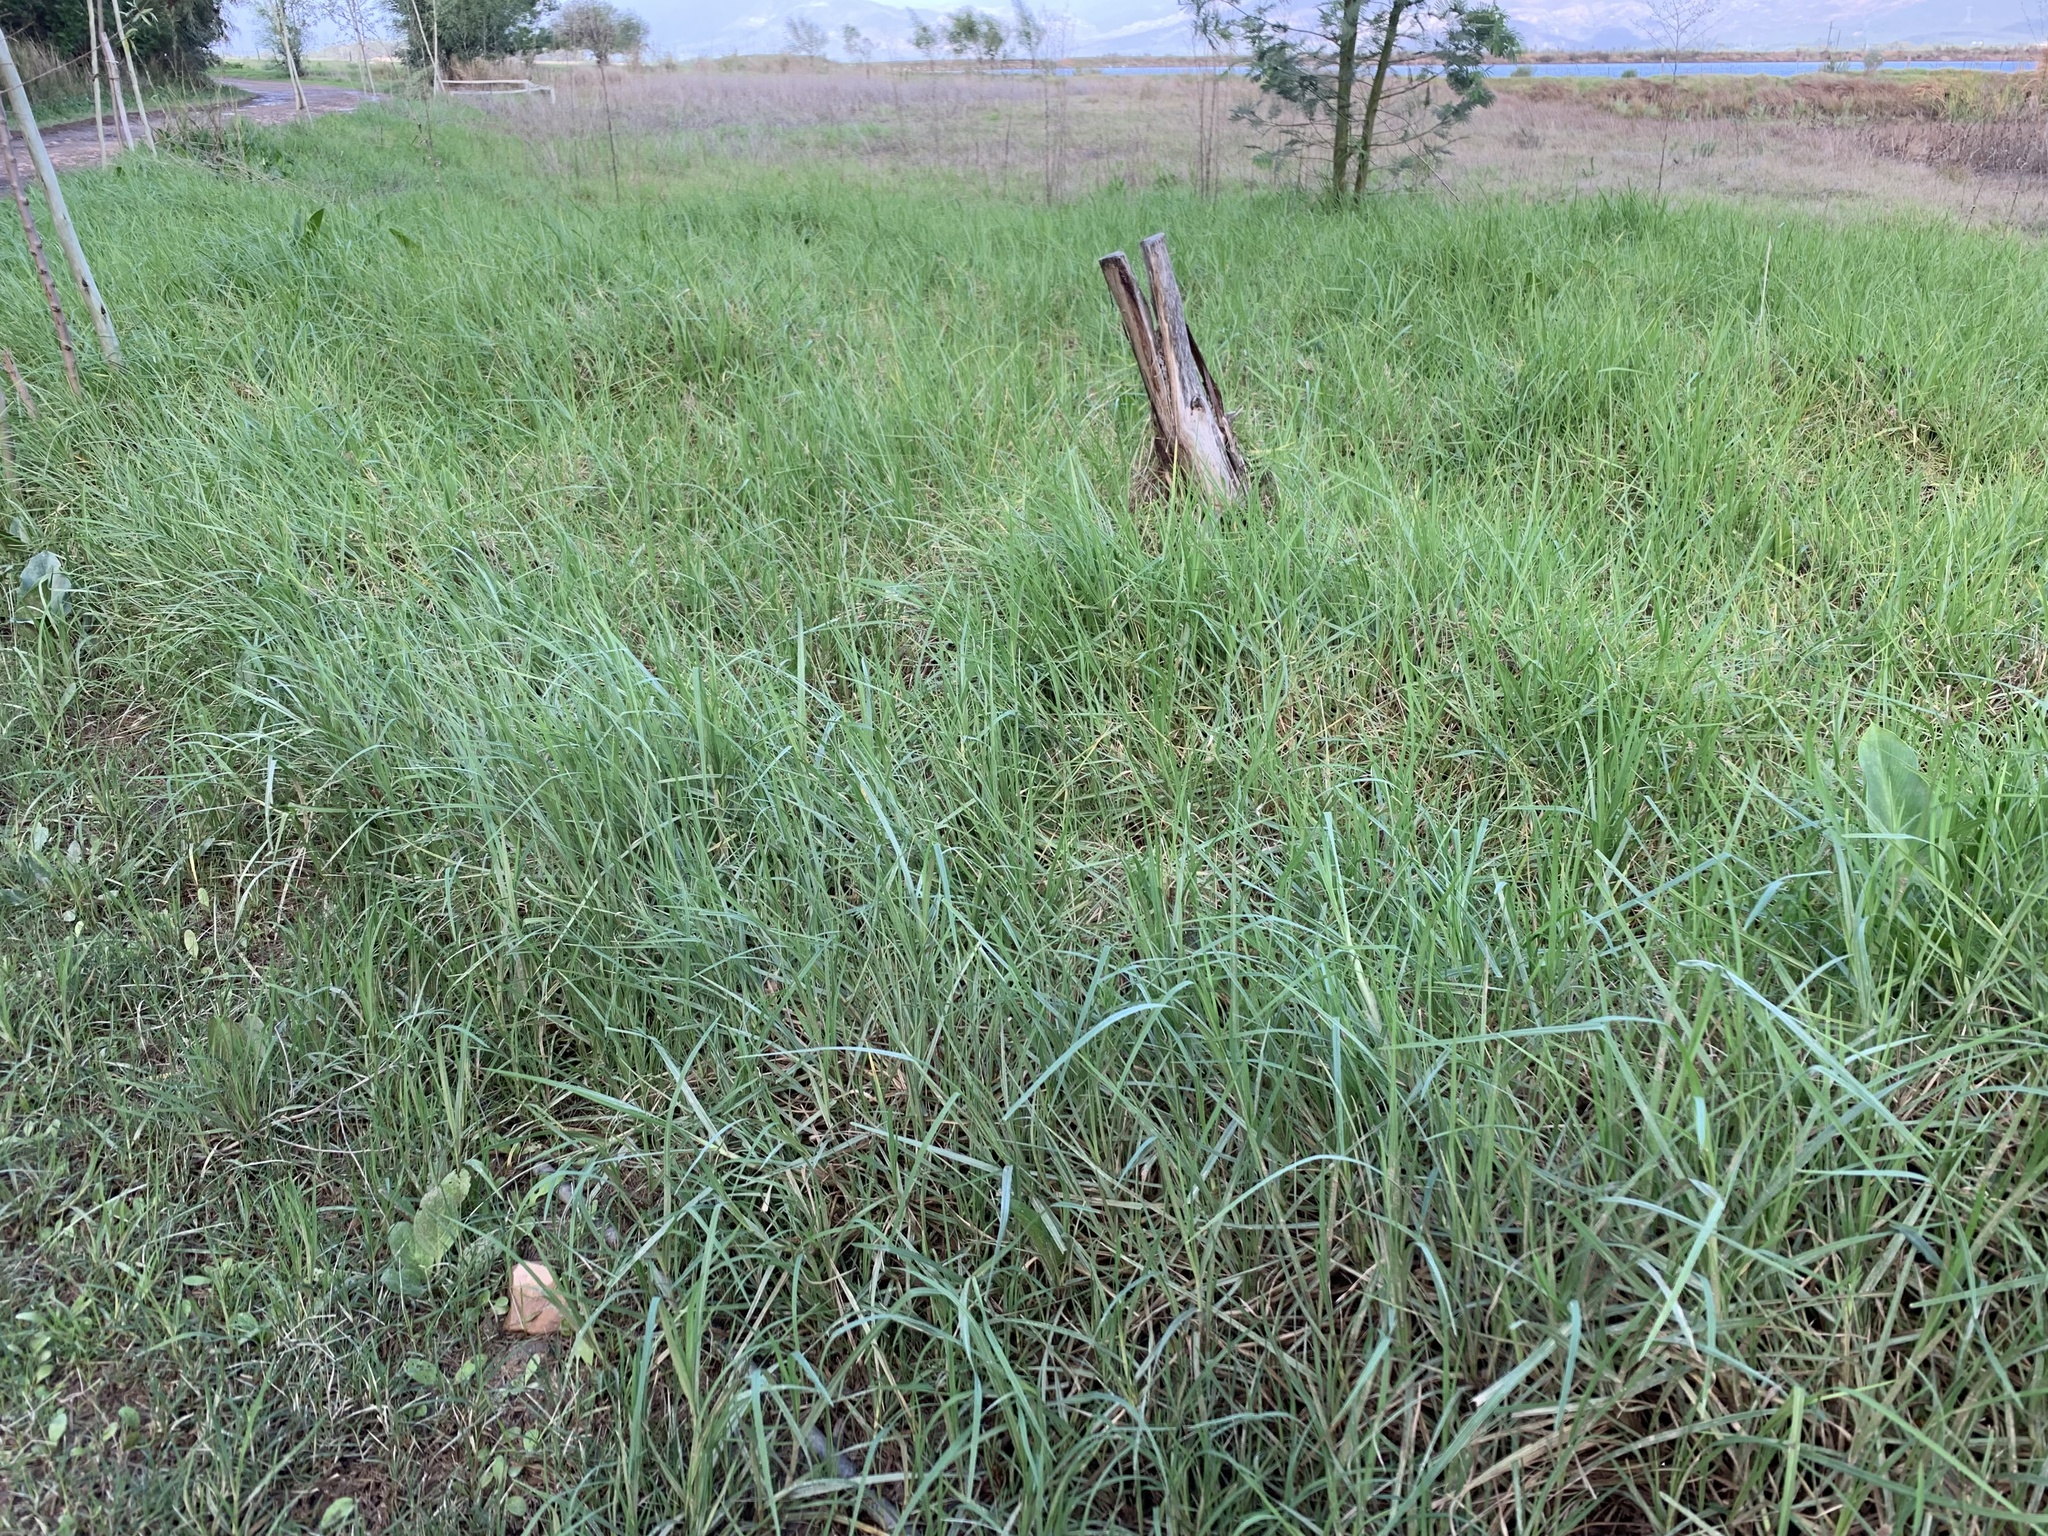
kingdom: Plantae
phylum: Tracheophyta
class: Liliopsida
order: Poales
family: Poaceae
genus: Cenchrus
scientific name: Cenchrus clandestinus
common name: Kikuyugrass
